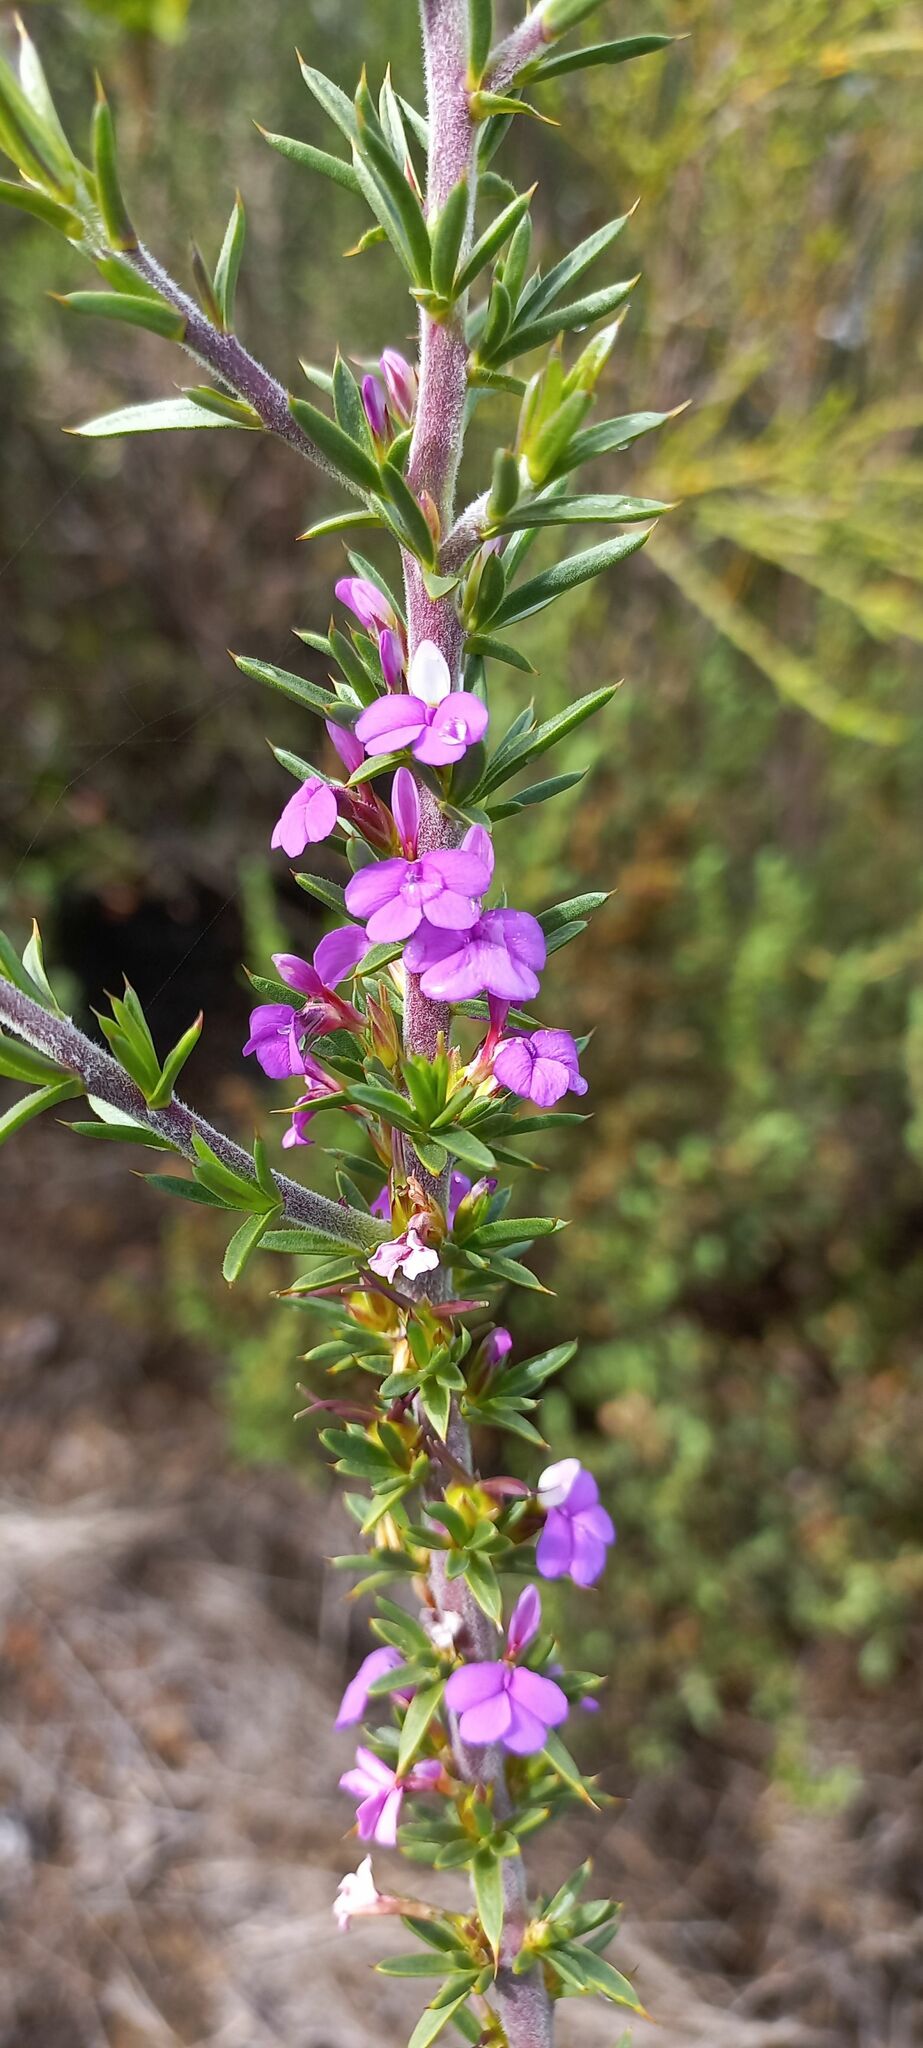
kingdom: Plantae
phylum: Tracheophyta
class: Magnoliopsida
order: Fabales
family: Polygalaceae
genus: Muraltia
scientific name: Muraltia heisteria
